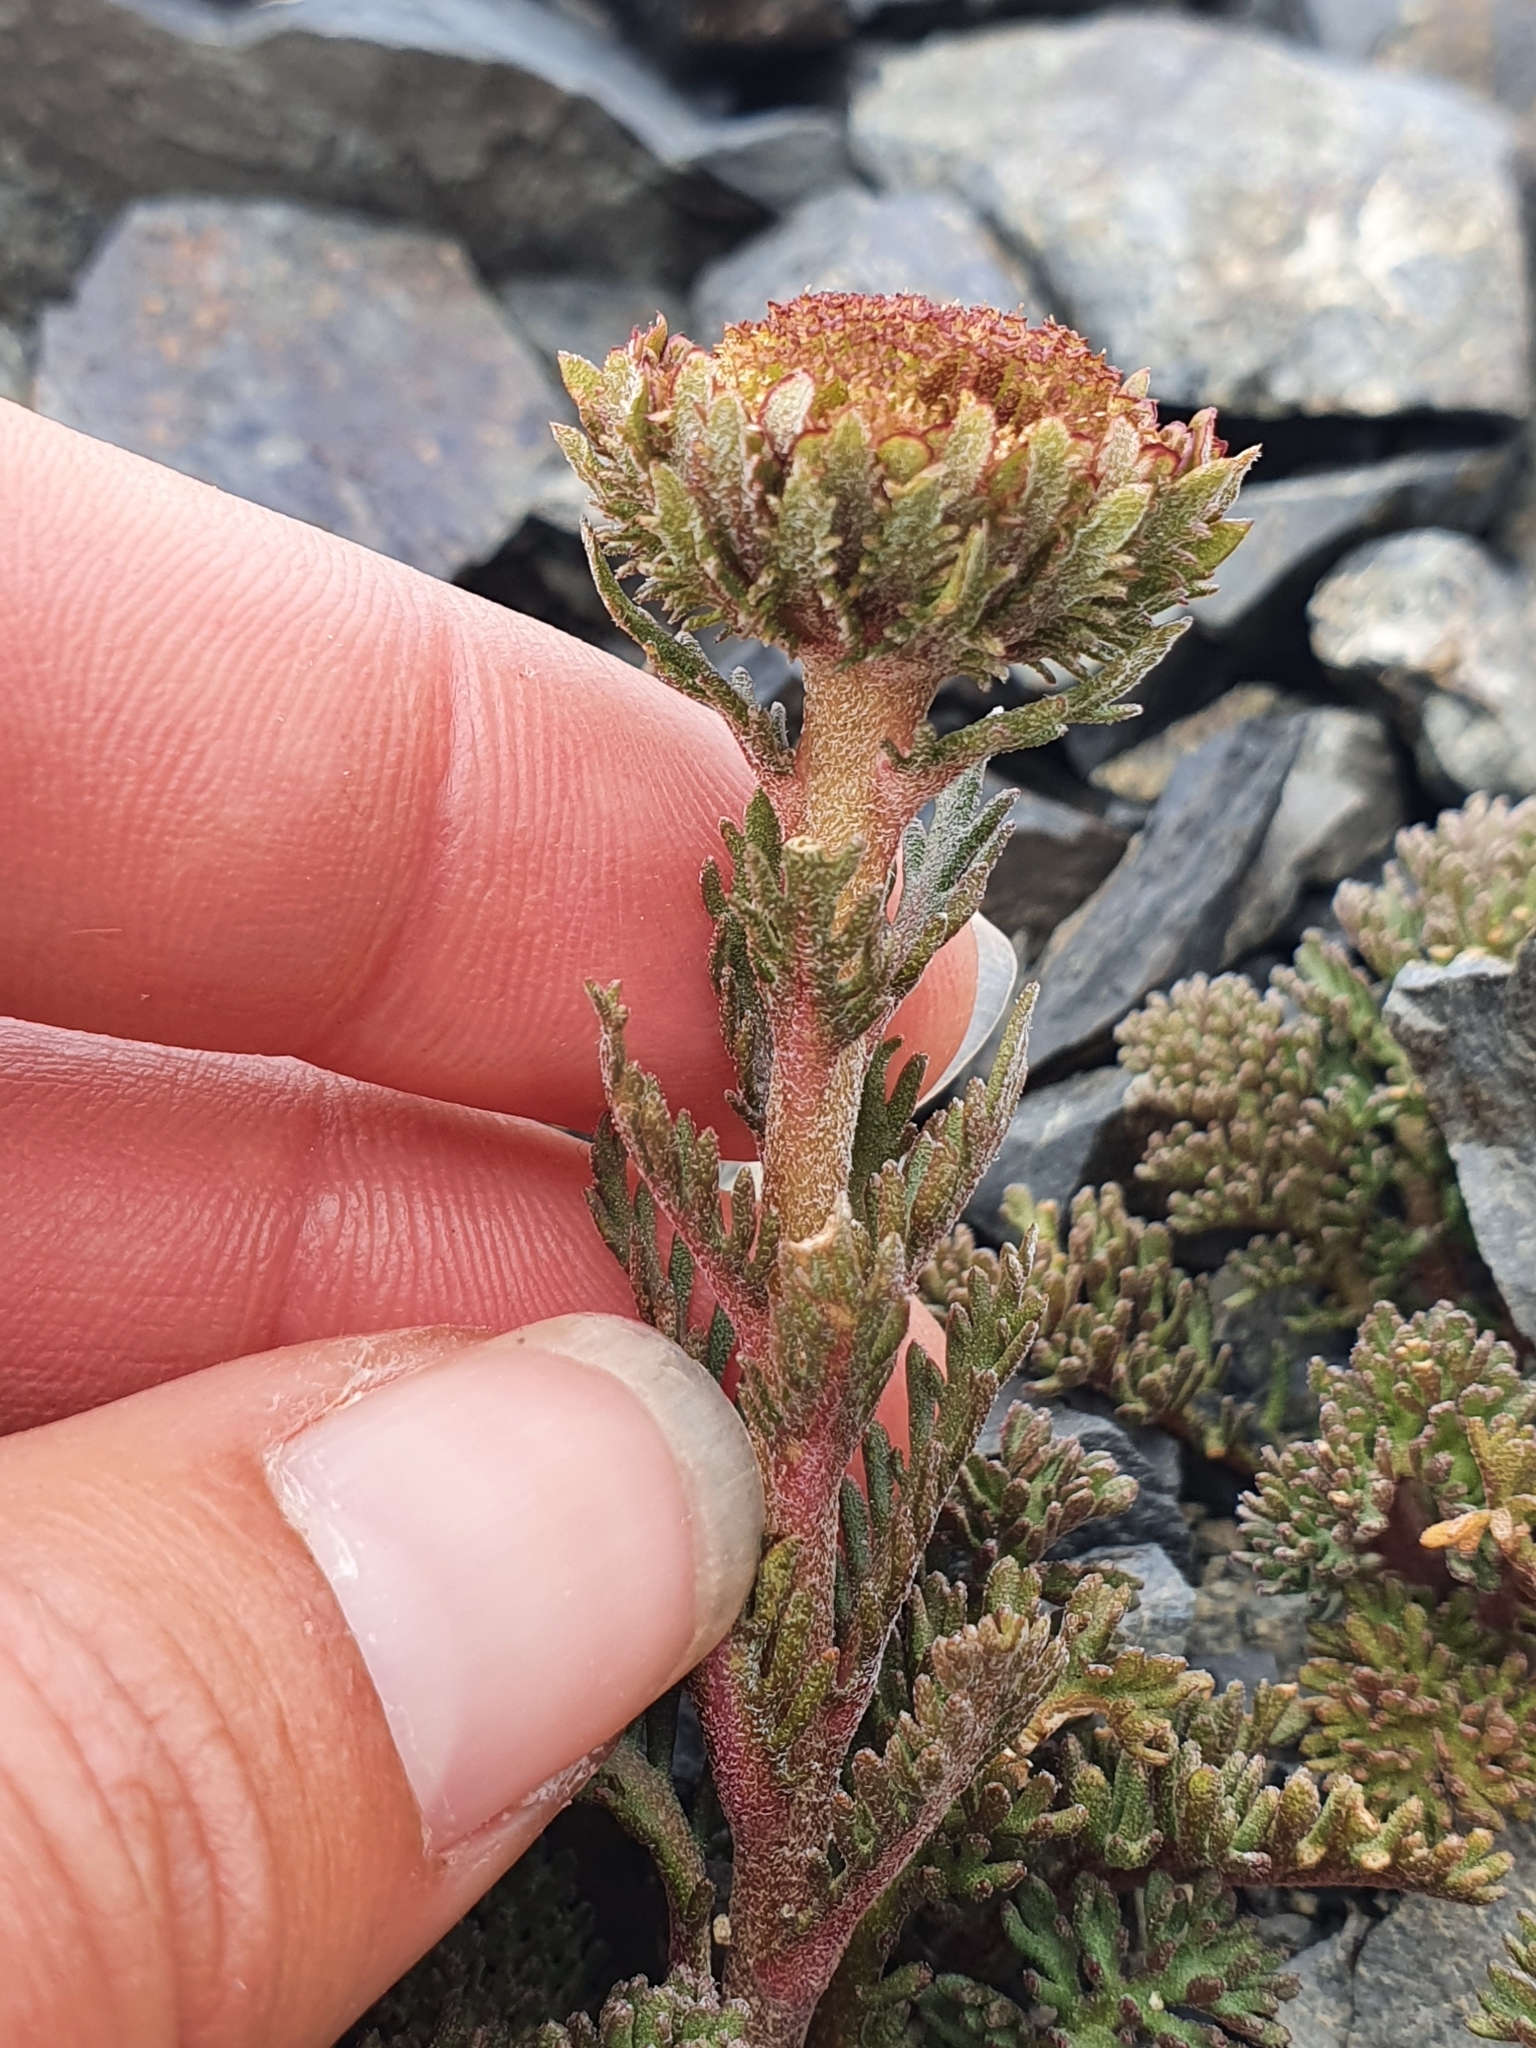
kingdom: Plantae
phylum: Tracheophyta
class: Magnoliopsida
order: Asterales
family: Asteraceae
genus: Leptinella
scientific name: Leptinella dendyi
